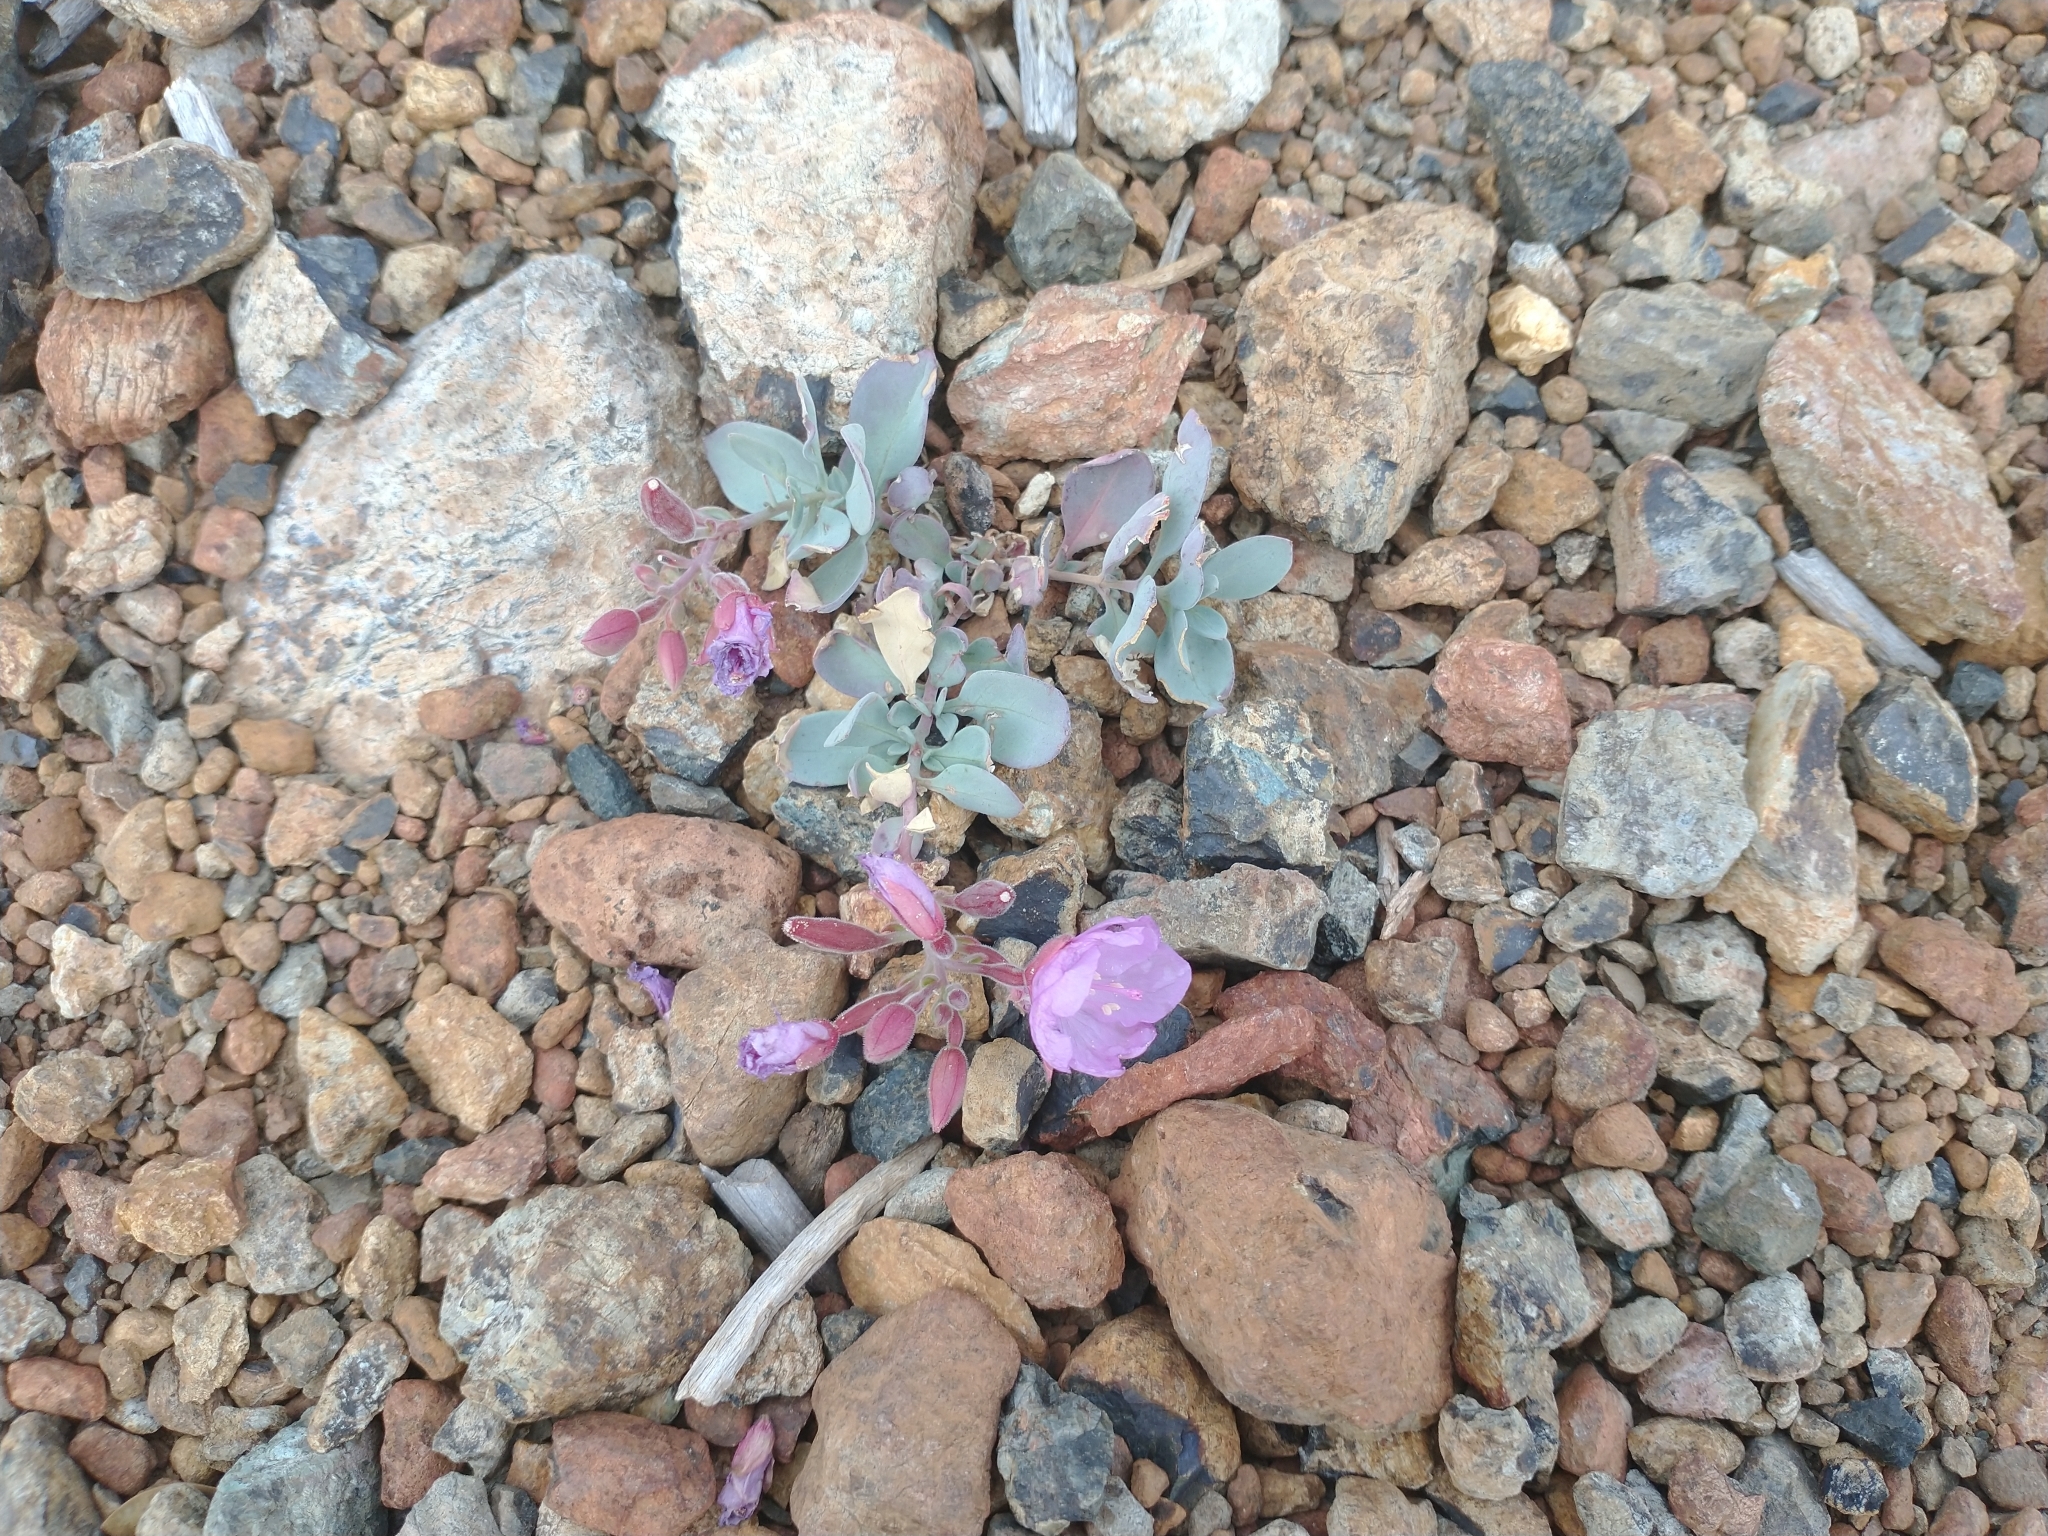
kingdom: Plantae
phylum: Tracheophyta
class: Magnoliopsida
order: Myrtales
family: Onagraceae
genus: Epilobium
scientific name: Epilobium rigidum
